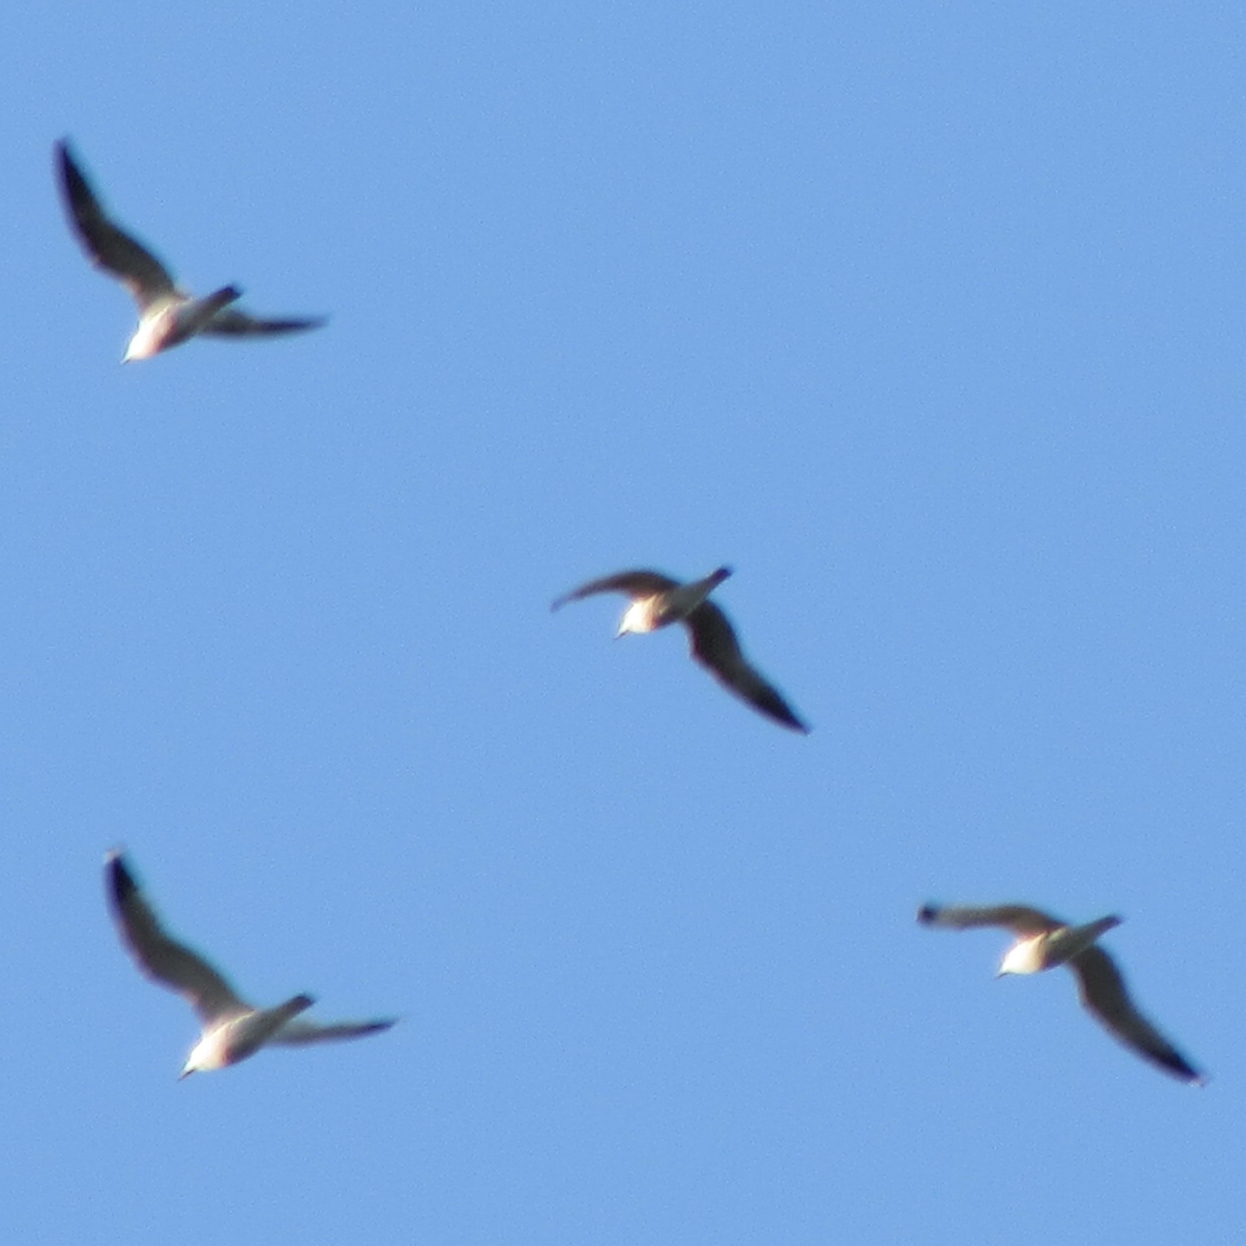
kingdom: Animalia
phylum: Chordata
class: Aves
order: Charadriiformes
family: Laridae
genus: Larus
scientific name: Larus delawarensis
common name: Ring-billed gull
